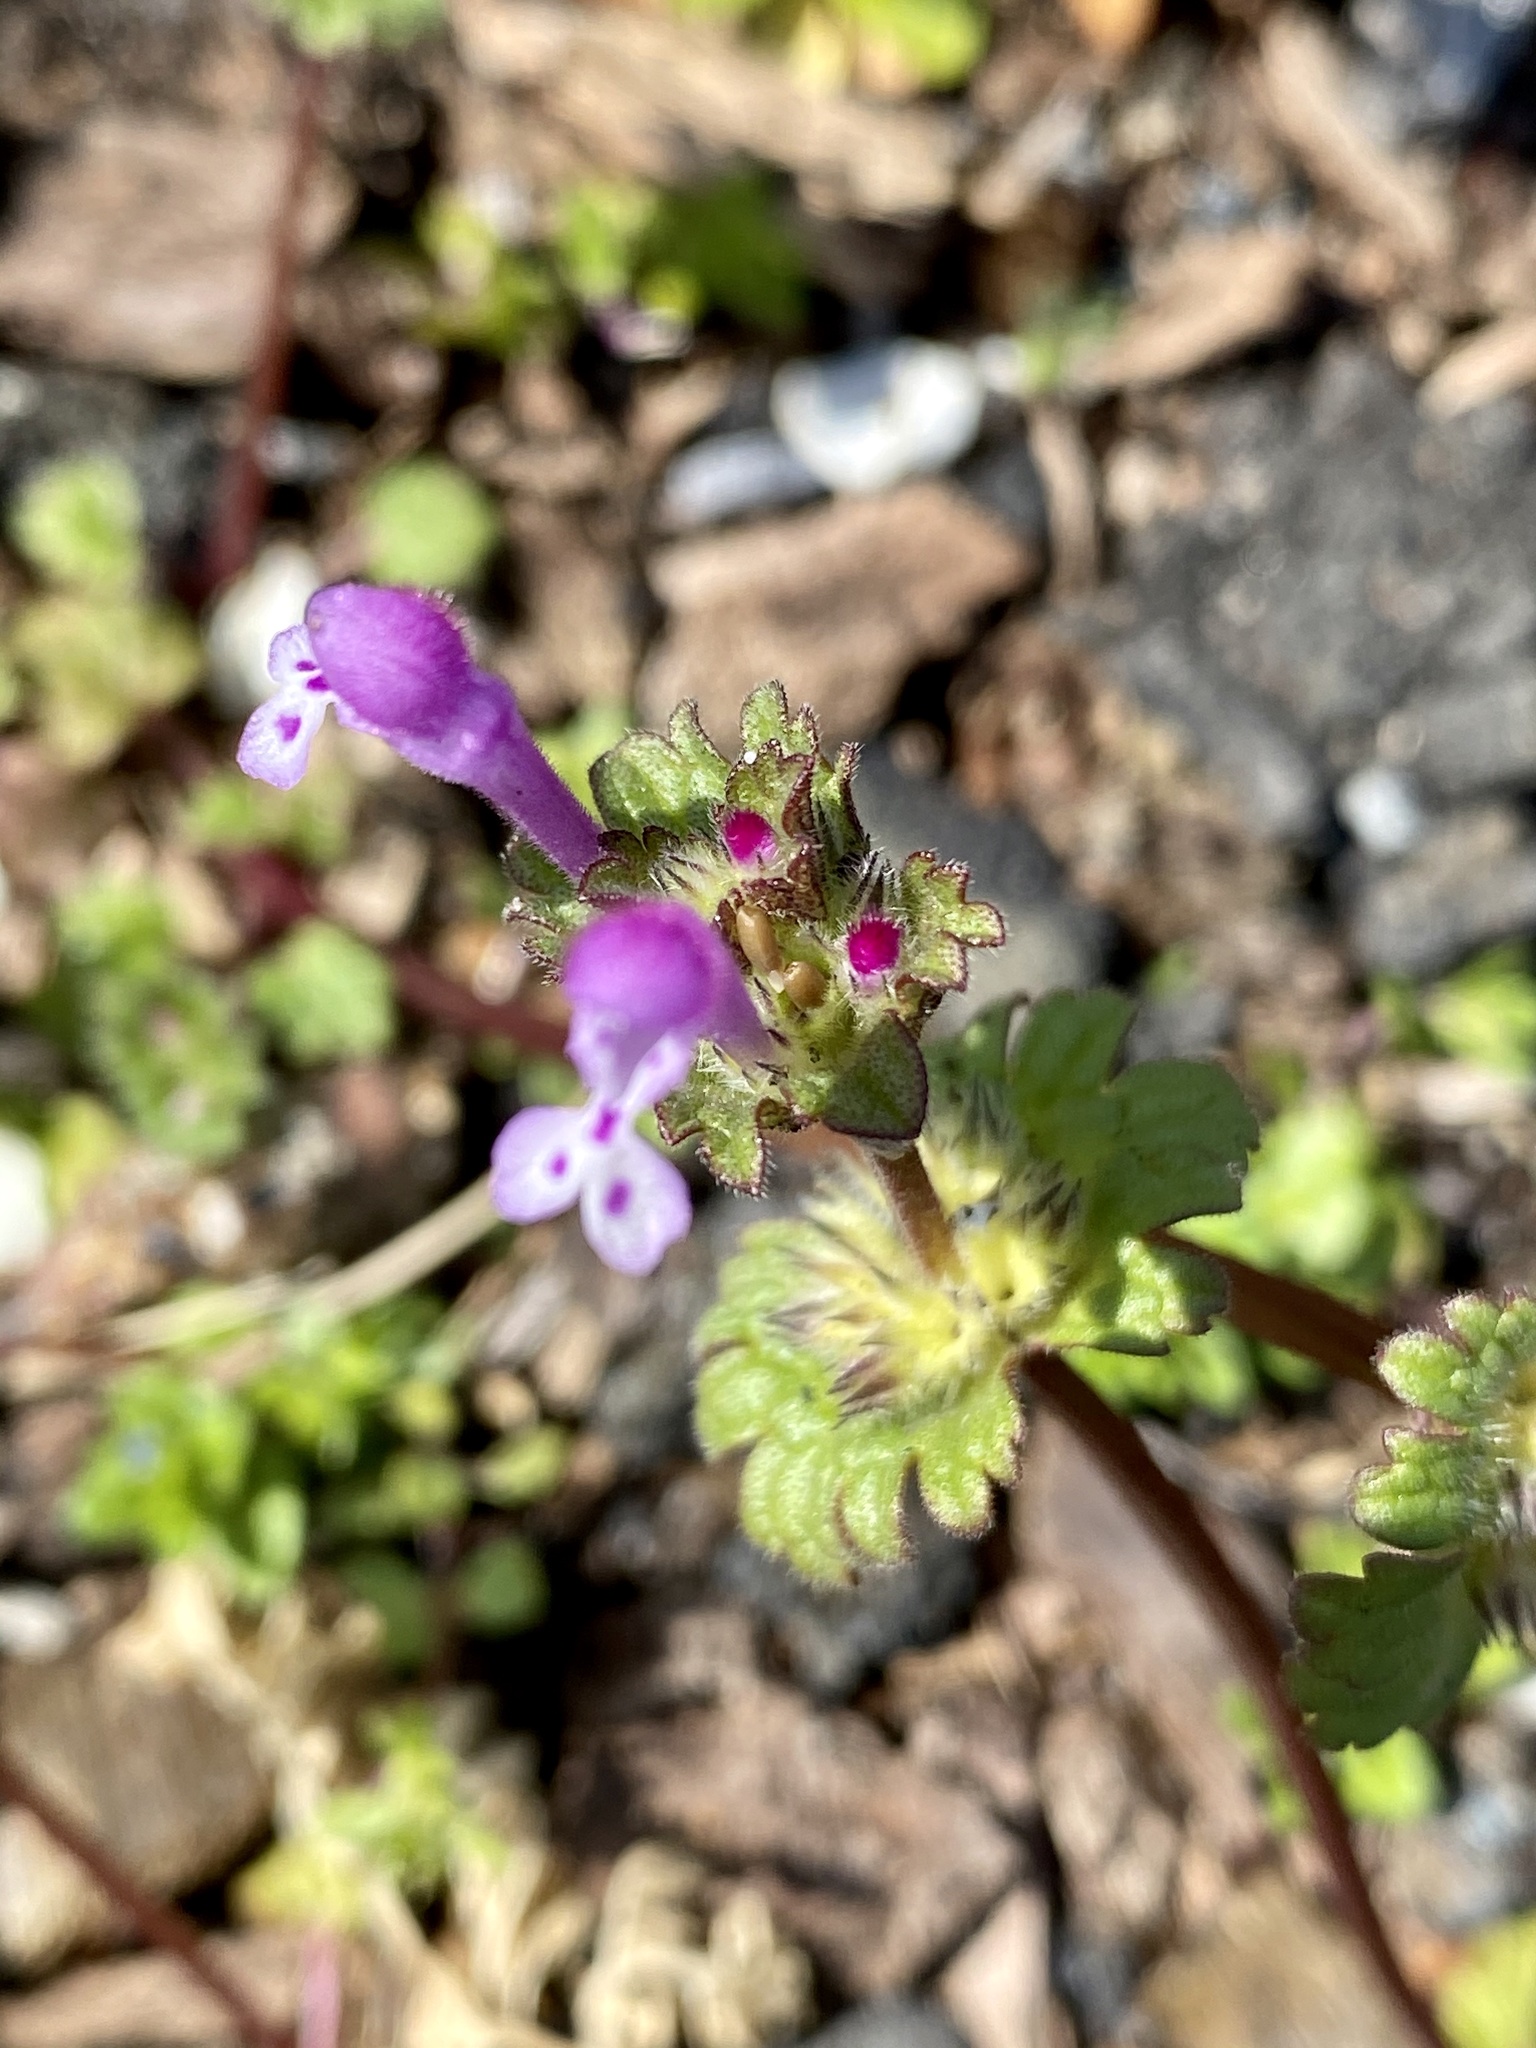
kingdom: Plantae
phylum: Tracheophyta
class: Magnoliopsida
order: Lamiales
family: Lamiaceae
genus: Lamium
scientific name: Lamium amplexicaule
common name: Henbit dead-nettle
